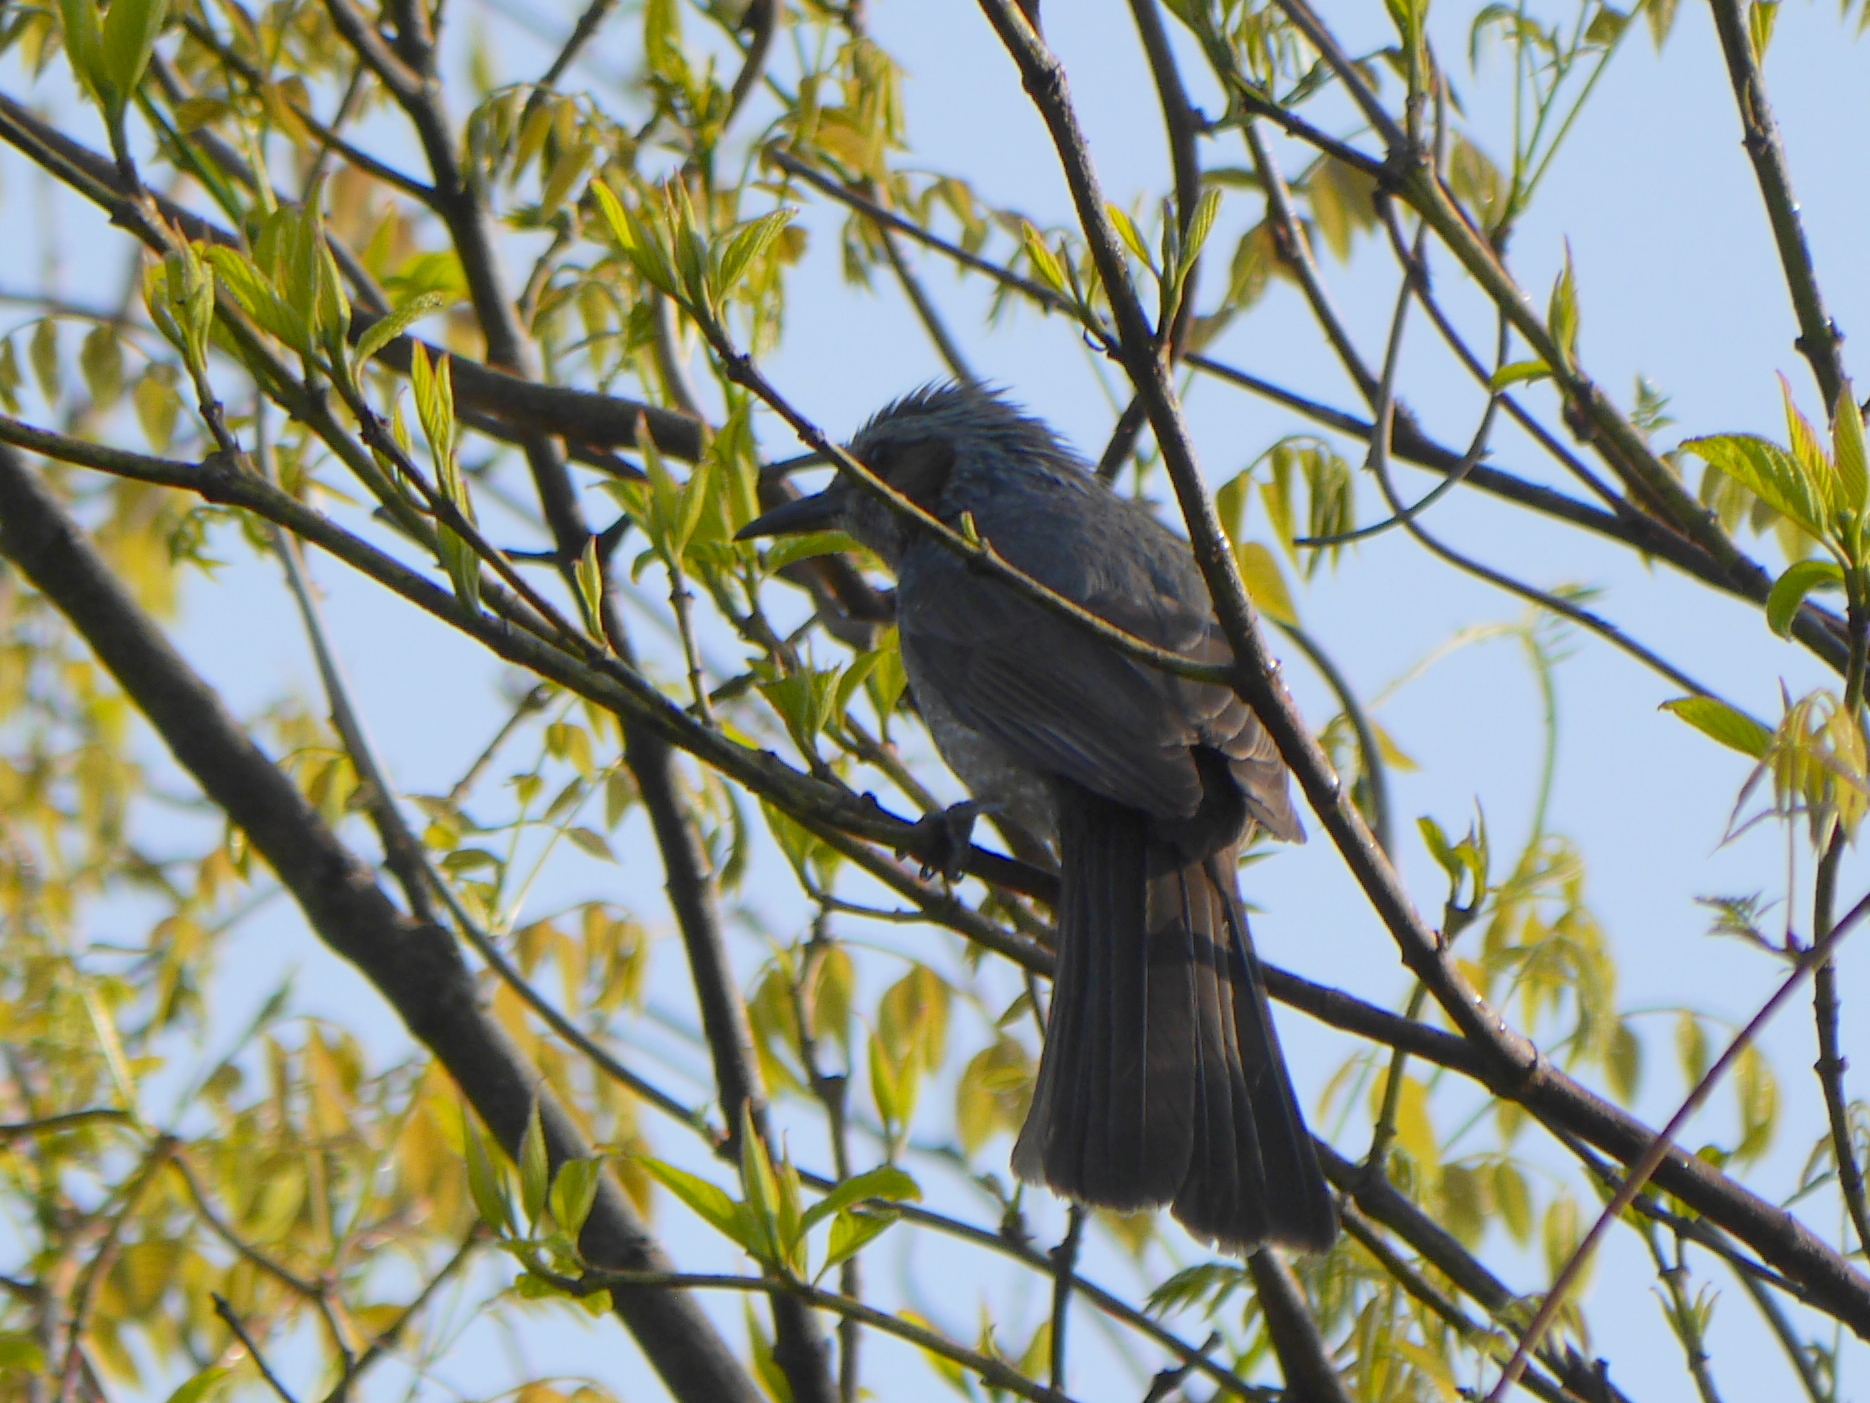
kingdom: Animalia
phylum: Chordata
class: Aves
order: Passeriformes
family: Pycnonotidae
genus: Hypsipetes
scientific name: Hypsipetes amaurotis
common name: Brown-eared bulbul
